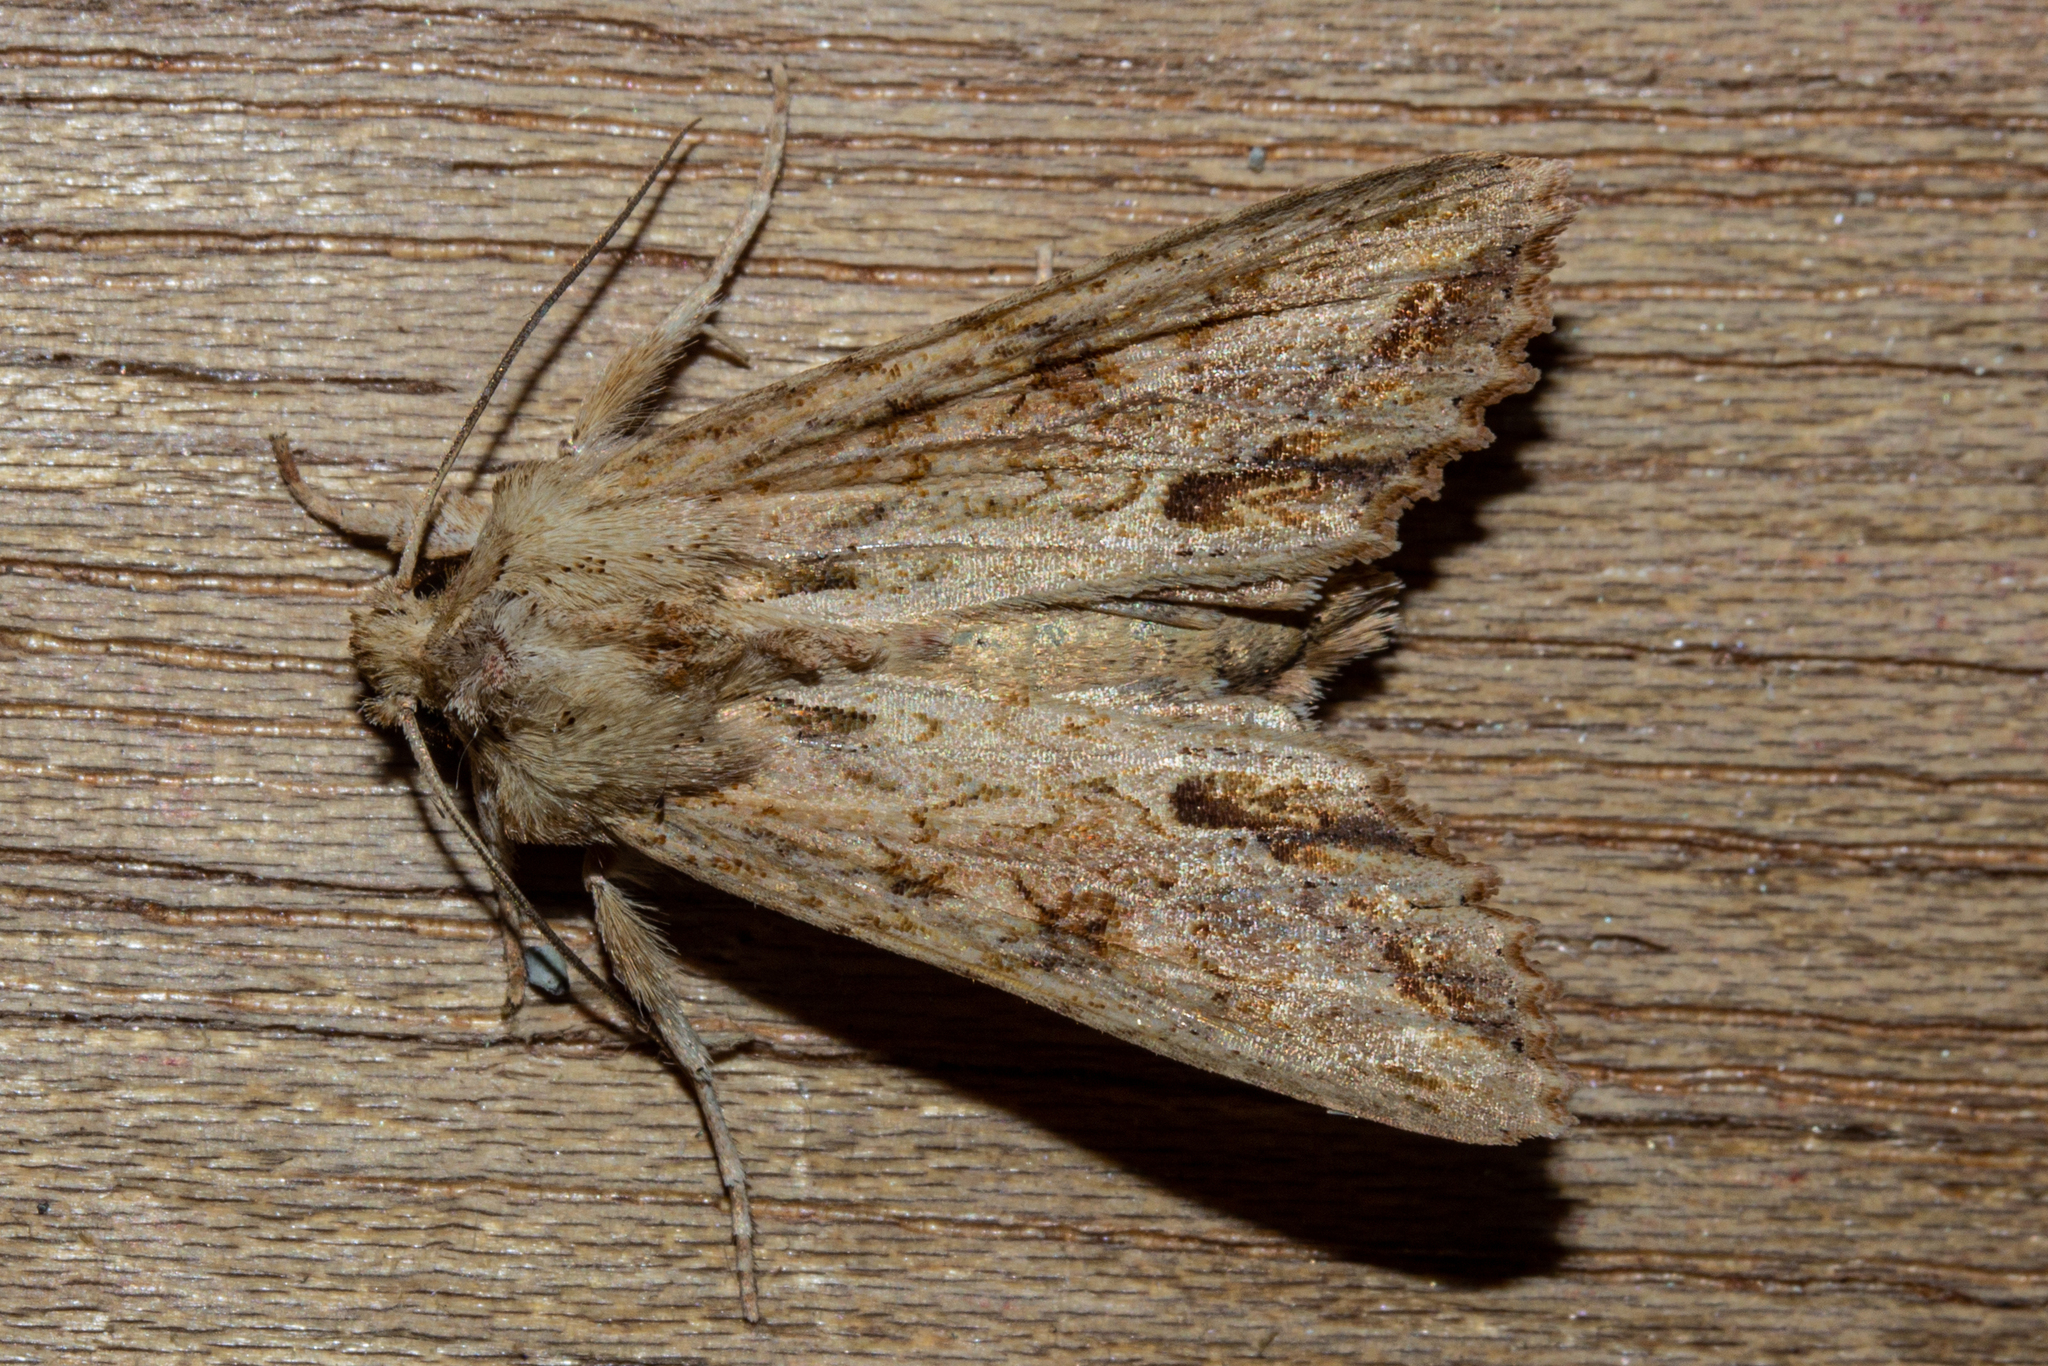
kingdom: Animalia
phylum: Arthropoda
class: Insecta
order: Lepidoptera
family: Noctuidae
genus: Ichneutica
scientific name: Ichneutica mollis
